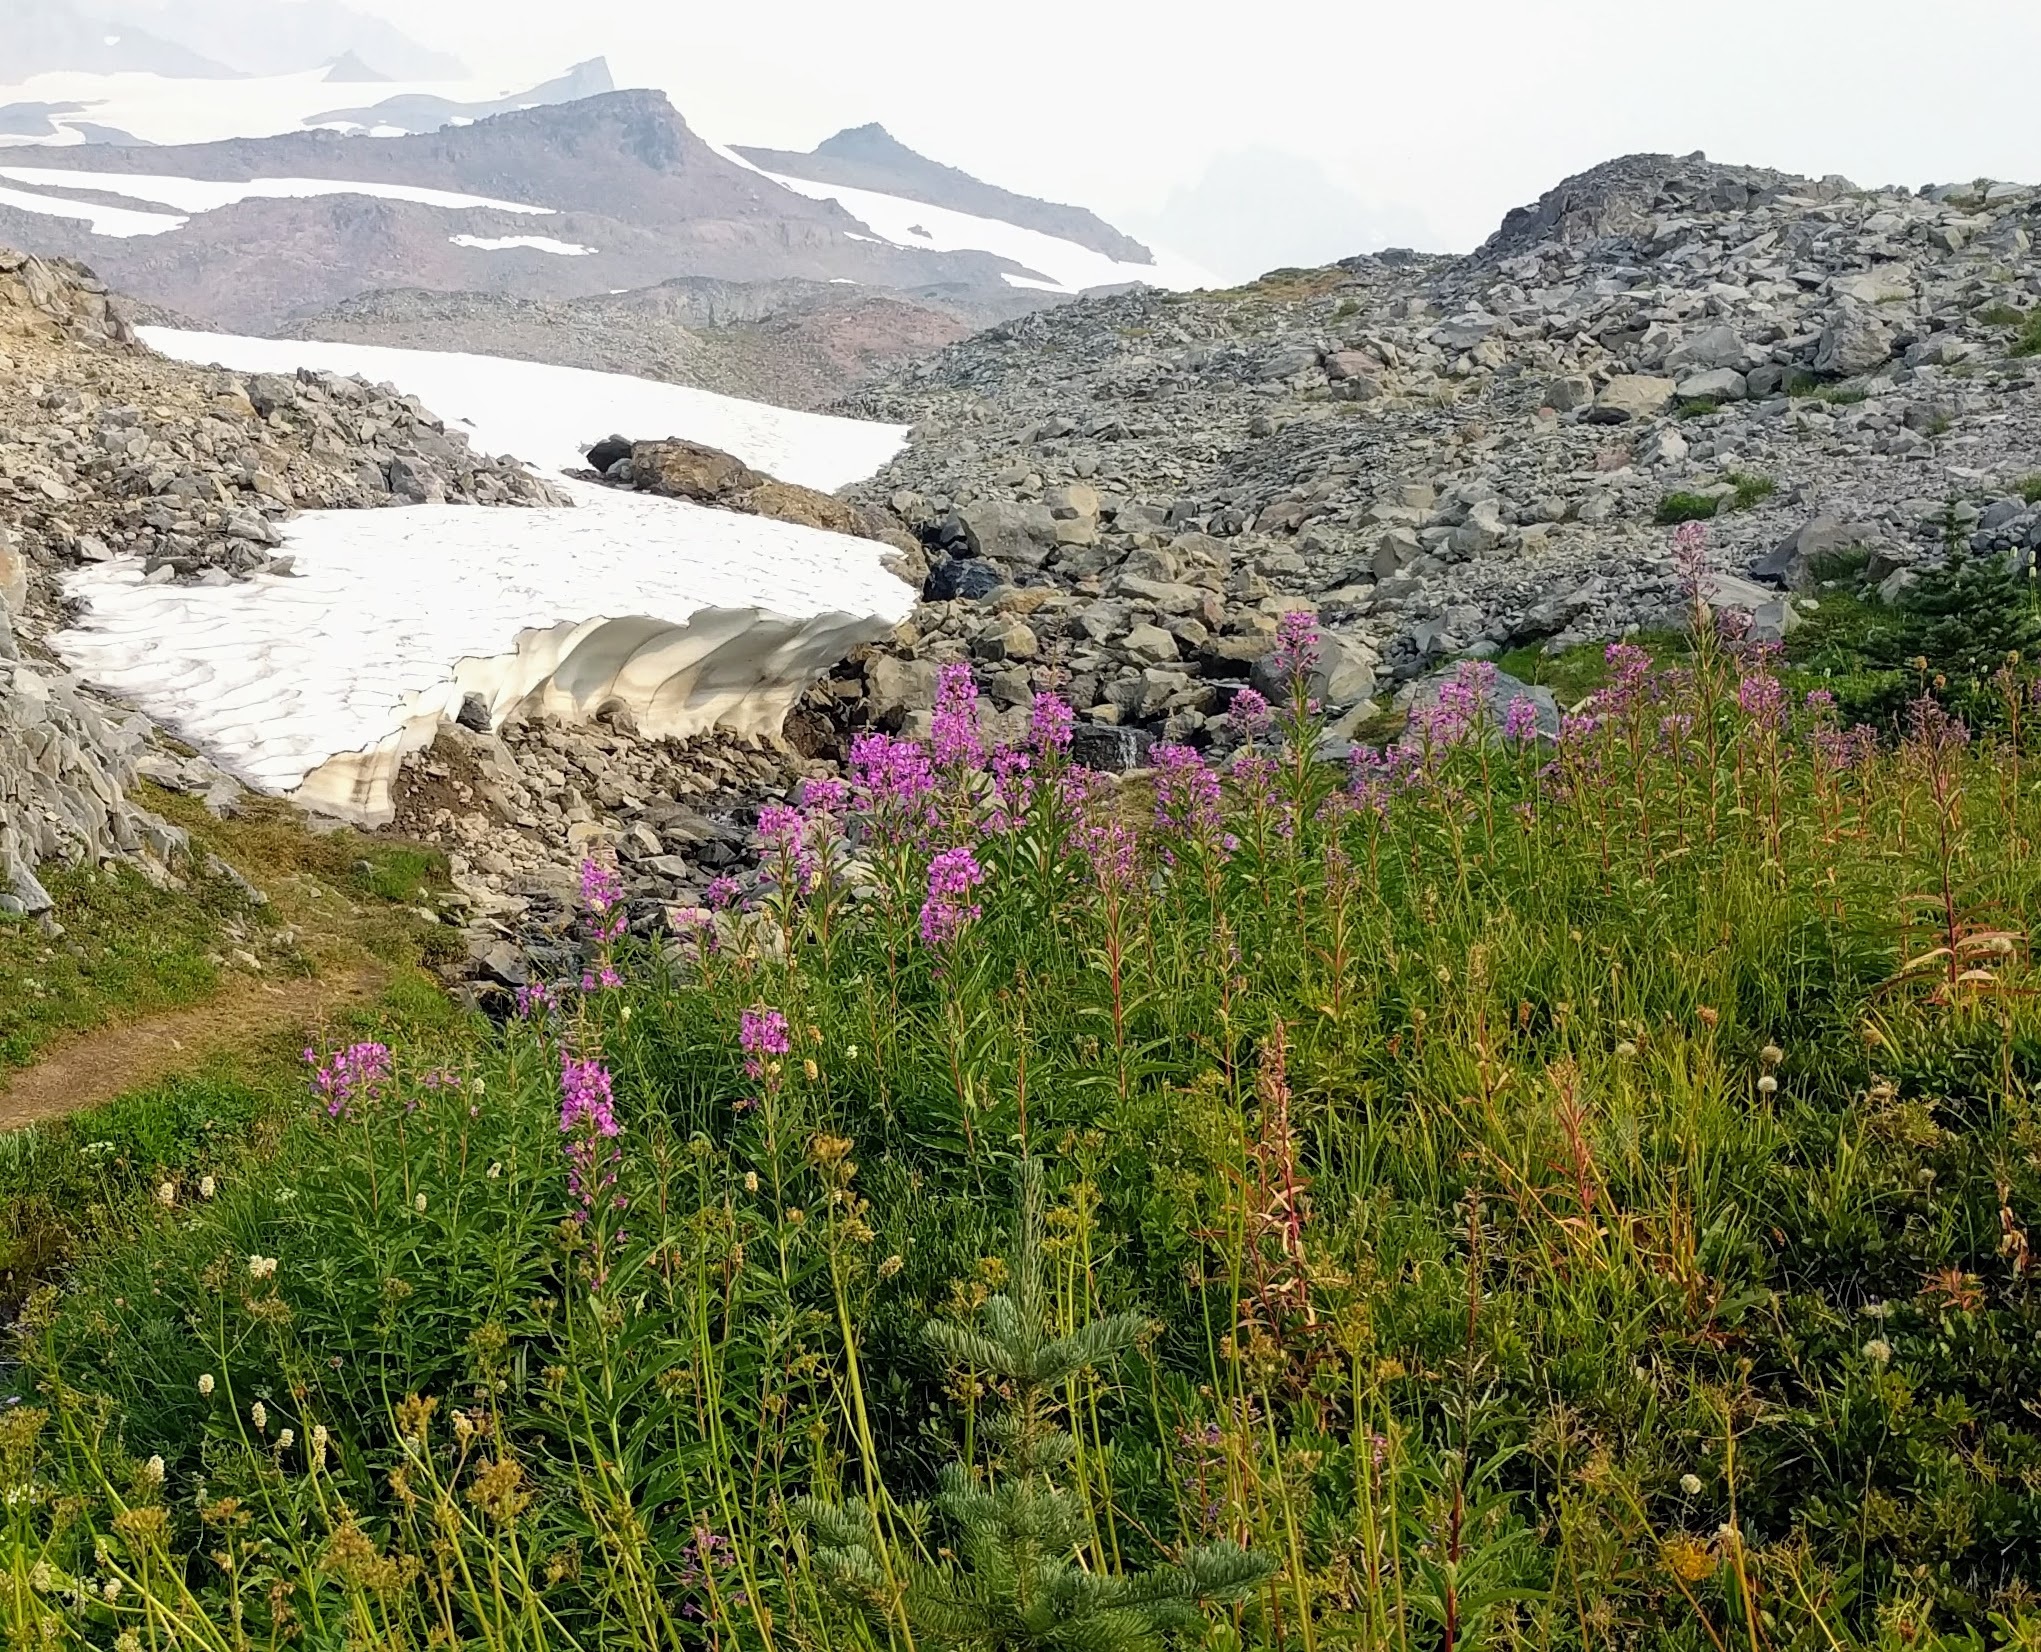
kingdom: Plantae
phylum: Tracheophyta
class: Magnoliopsida
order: Myrtales
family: Onagraceae
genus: Chamaenerion
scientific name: Chamaenerion angustifolium
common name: Fireweed
